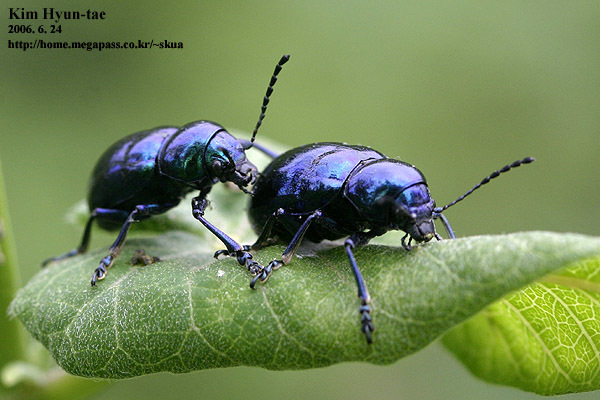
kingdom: Animalia
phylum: Arthropoda
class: Insecta
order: Coleoptera
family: Chrysomelidae
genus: Chrysochus
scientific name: Chrysochus chinensis
